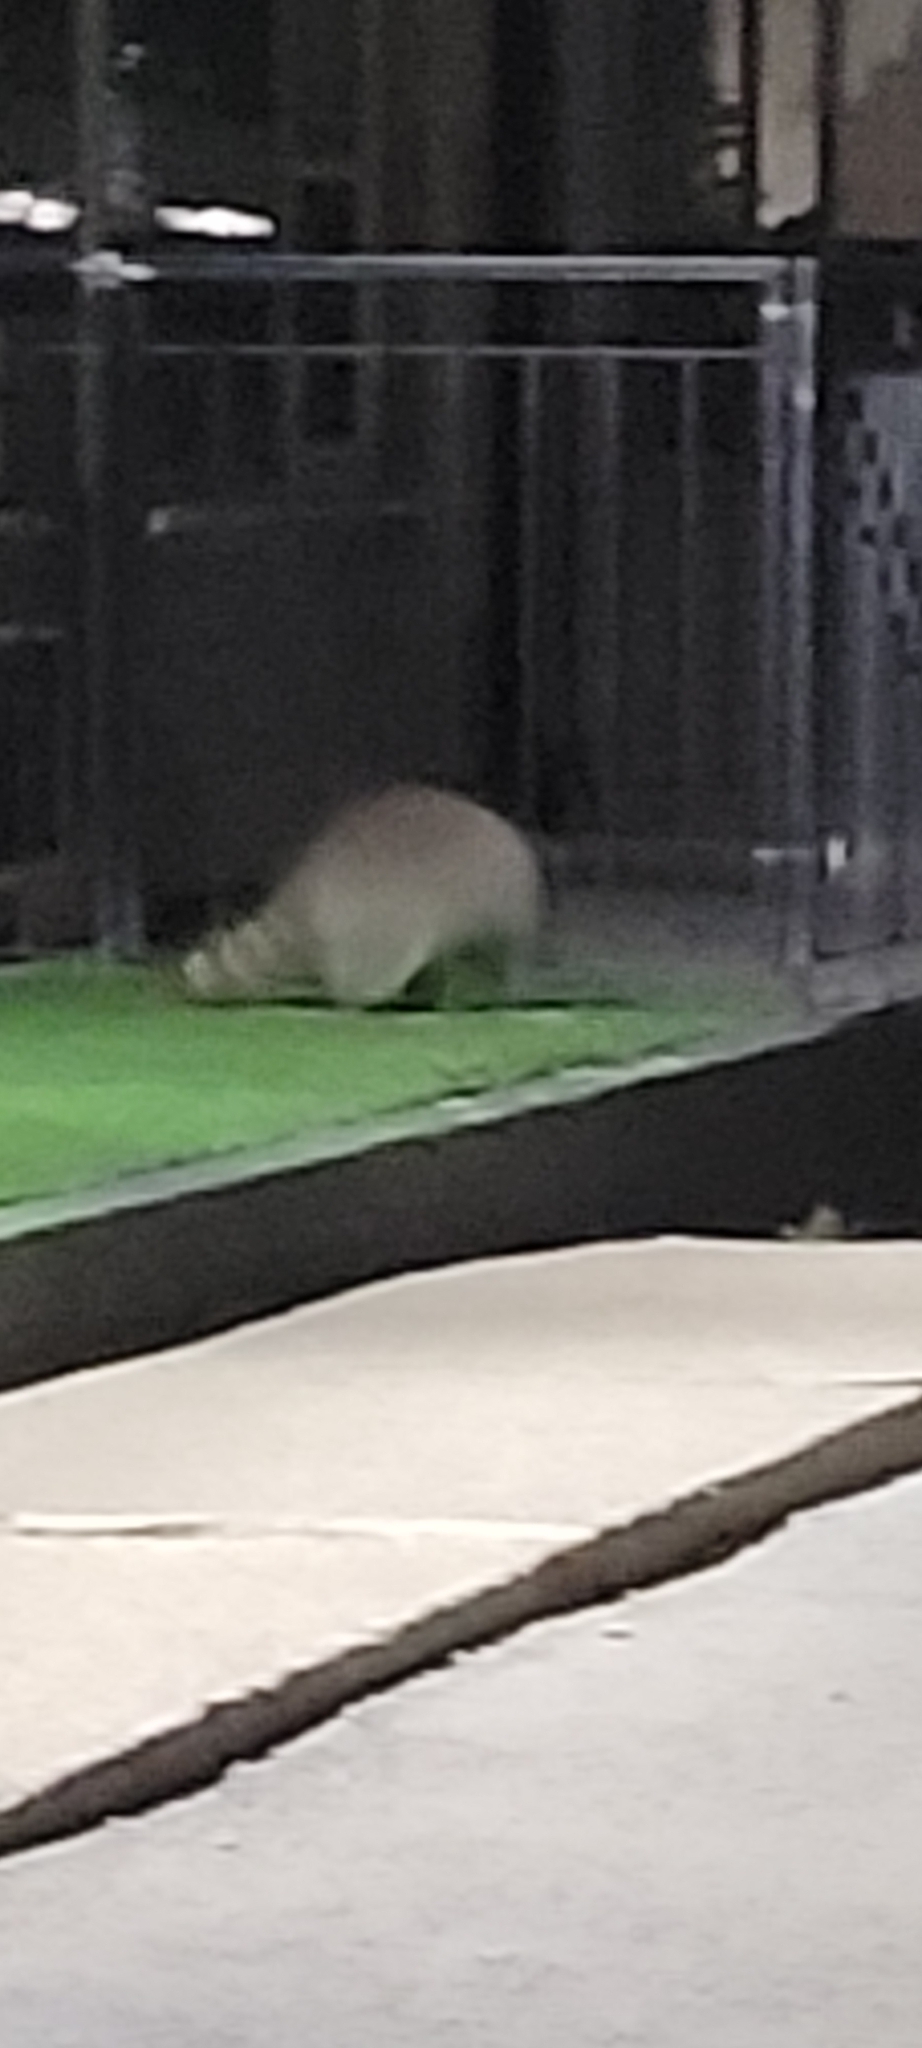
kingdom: Animalia
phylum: Chordata
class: Mammalia
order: Carnivora
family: Procyonidae
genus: Procyon
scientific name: Procyon lotor
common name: Raccoon
